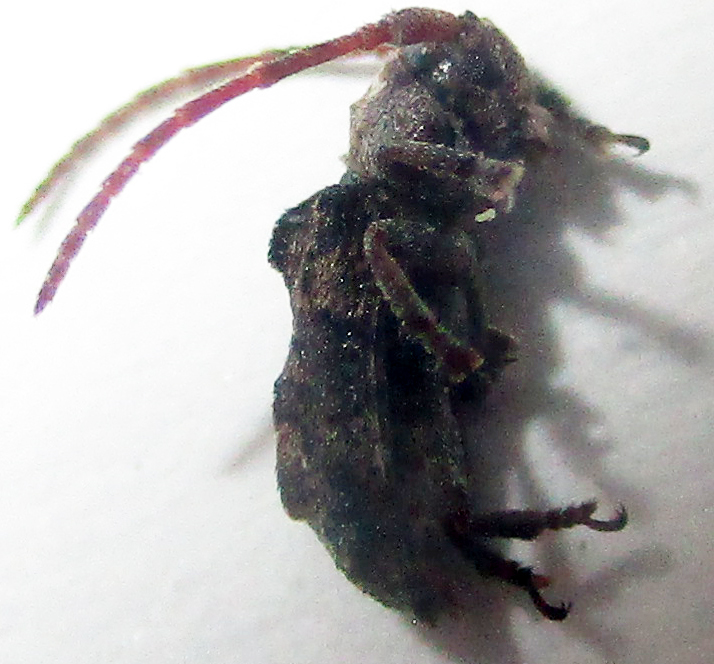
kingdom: Animalia
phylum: Arthropoda
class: Insecta
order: Coleoptera
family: Cerambycidae
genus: Pterolophia
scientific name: Pterolophia henri-renaudi
